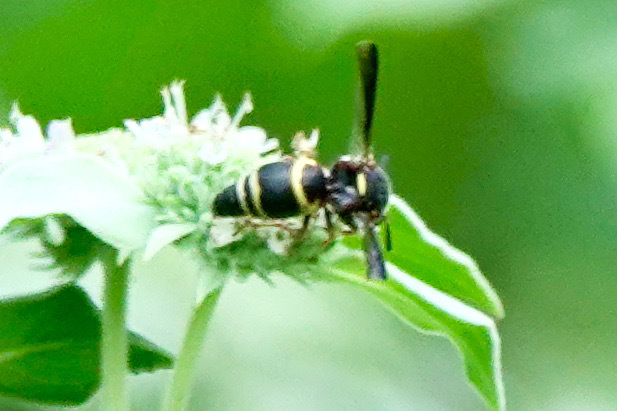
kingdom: Animalia
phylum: Arthropoda
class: Insecta
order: Hymenoptera
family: Eumenidae
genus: Euodynerus
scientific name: Euodynerus hidalgo
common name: Wasp
